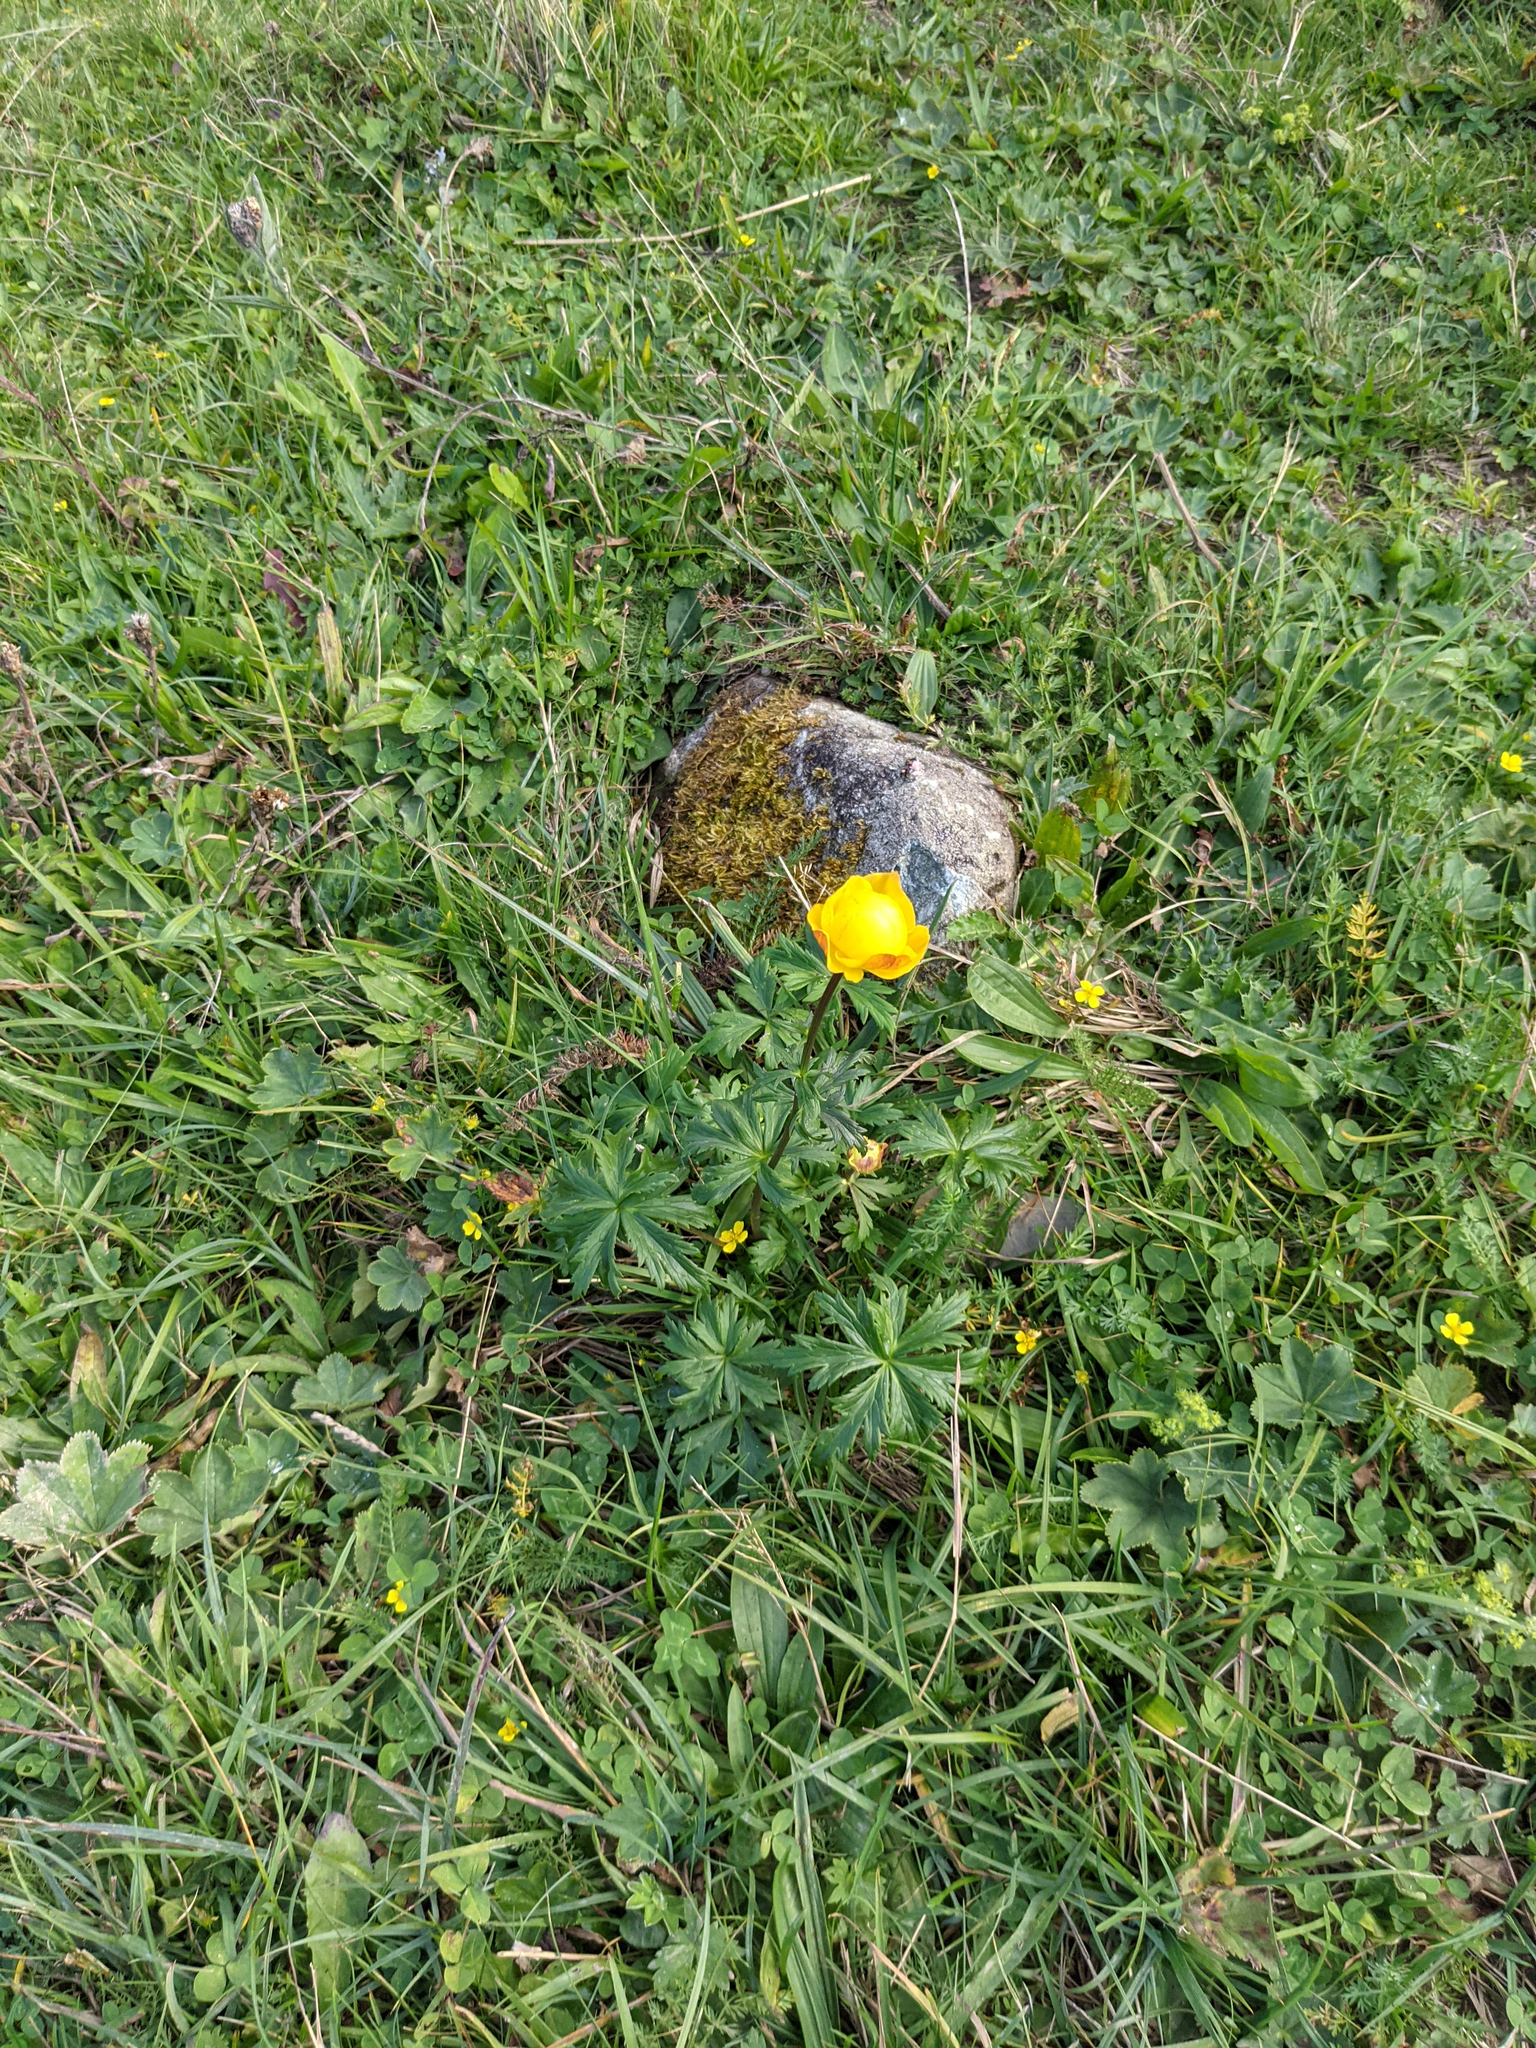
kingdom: Plantae
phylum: Tracheophyta
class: Magnoliopsida
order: Ranunculales
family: Ranunculaceae
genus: Trollius
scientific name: Trollius europaeus
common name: European globeflower
